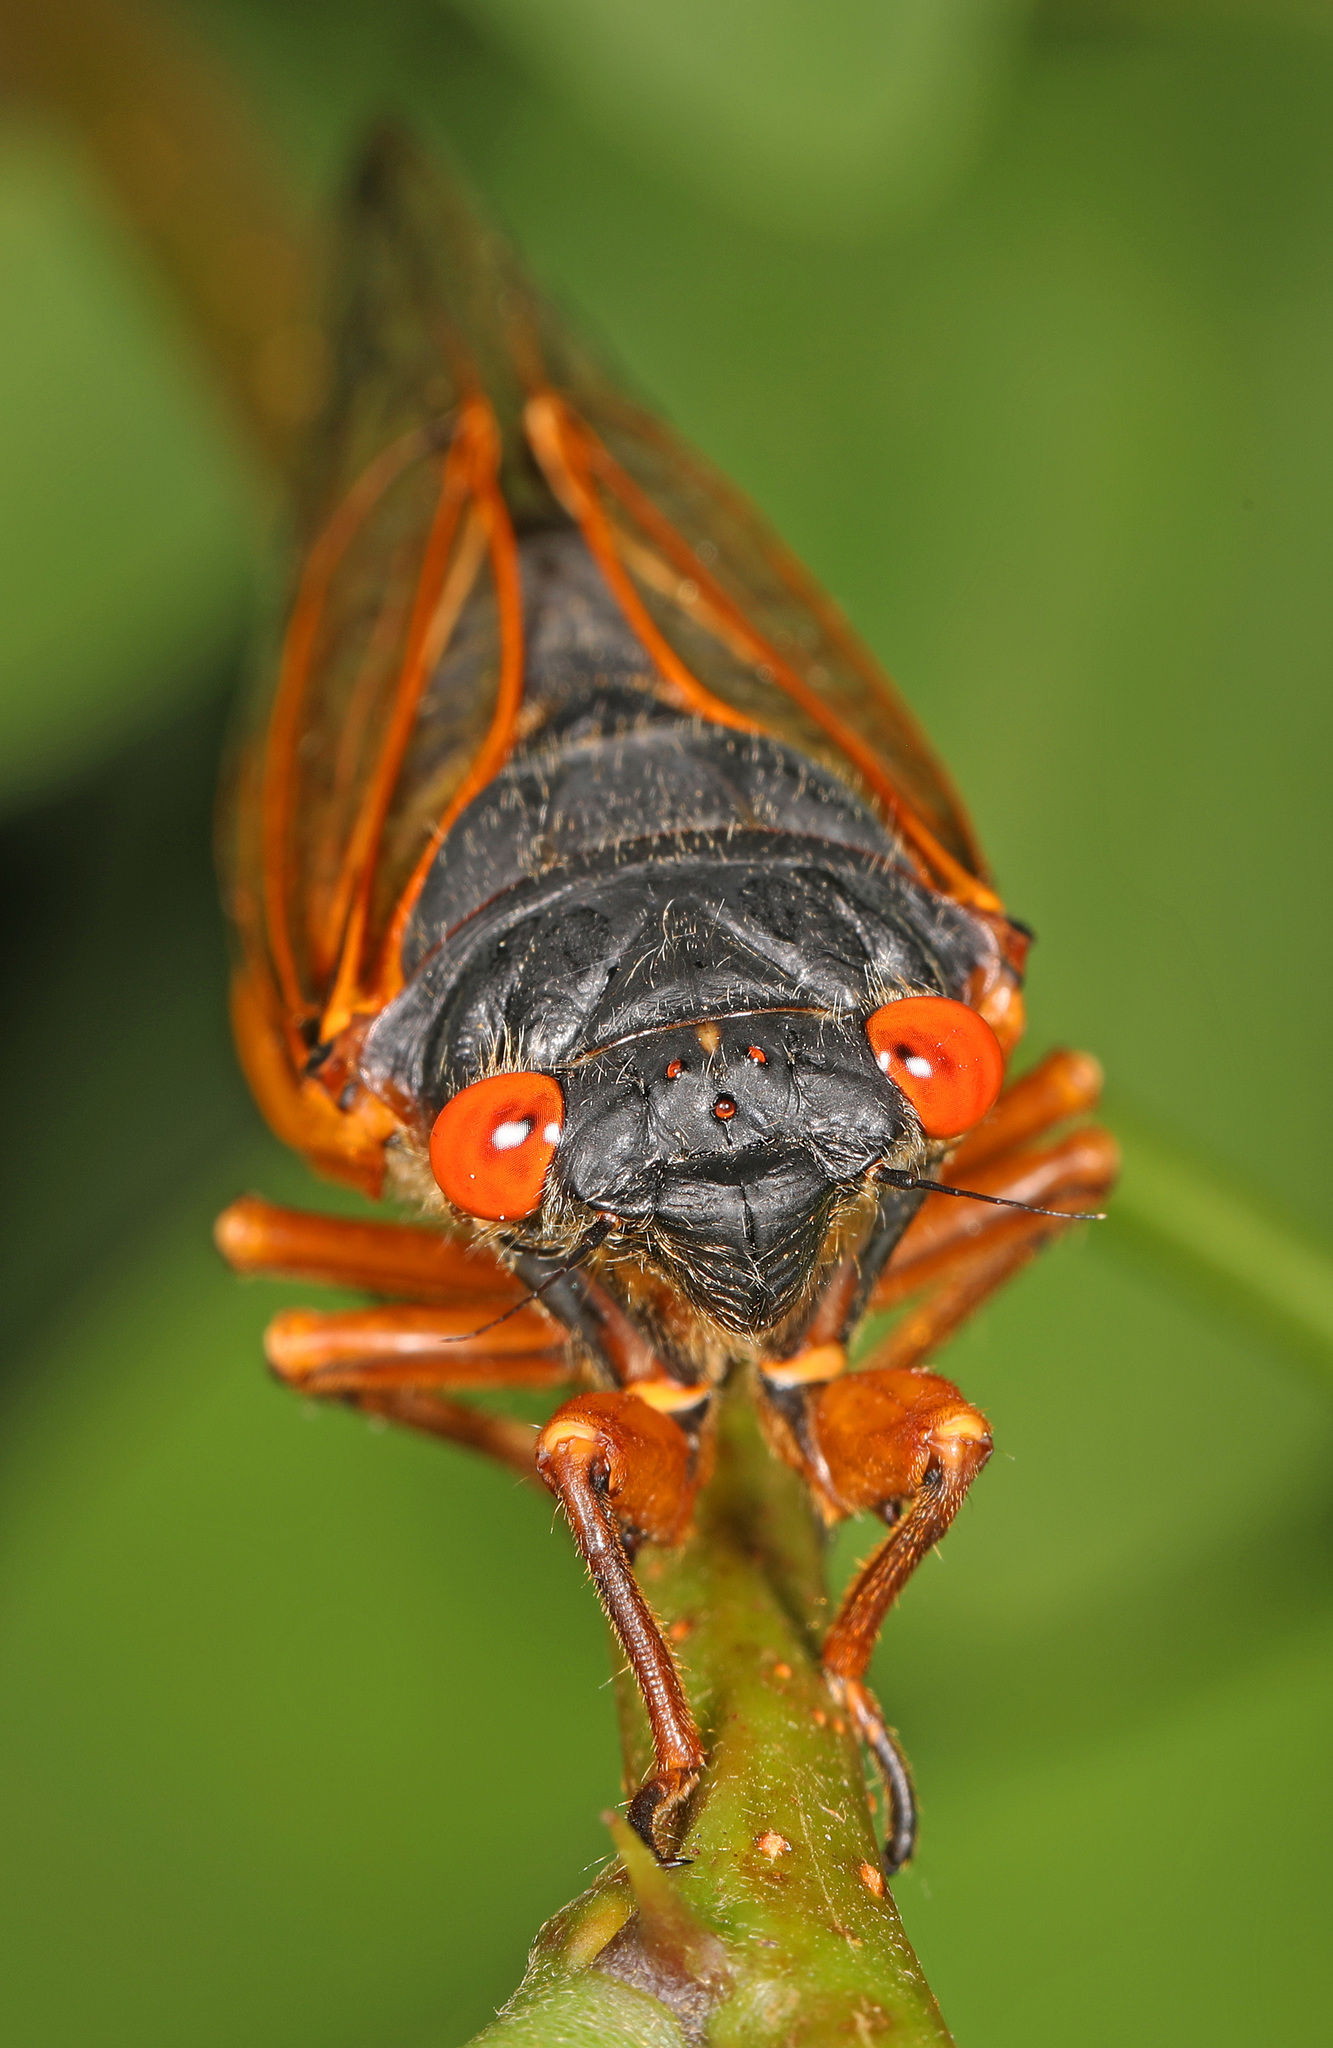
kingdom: Animalia
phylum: Arthropoda
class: Insecta
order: Hemiptera
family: Cicadidae
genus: Magicicada
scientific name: Magicicada septendecim
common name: Periodical cicada
